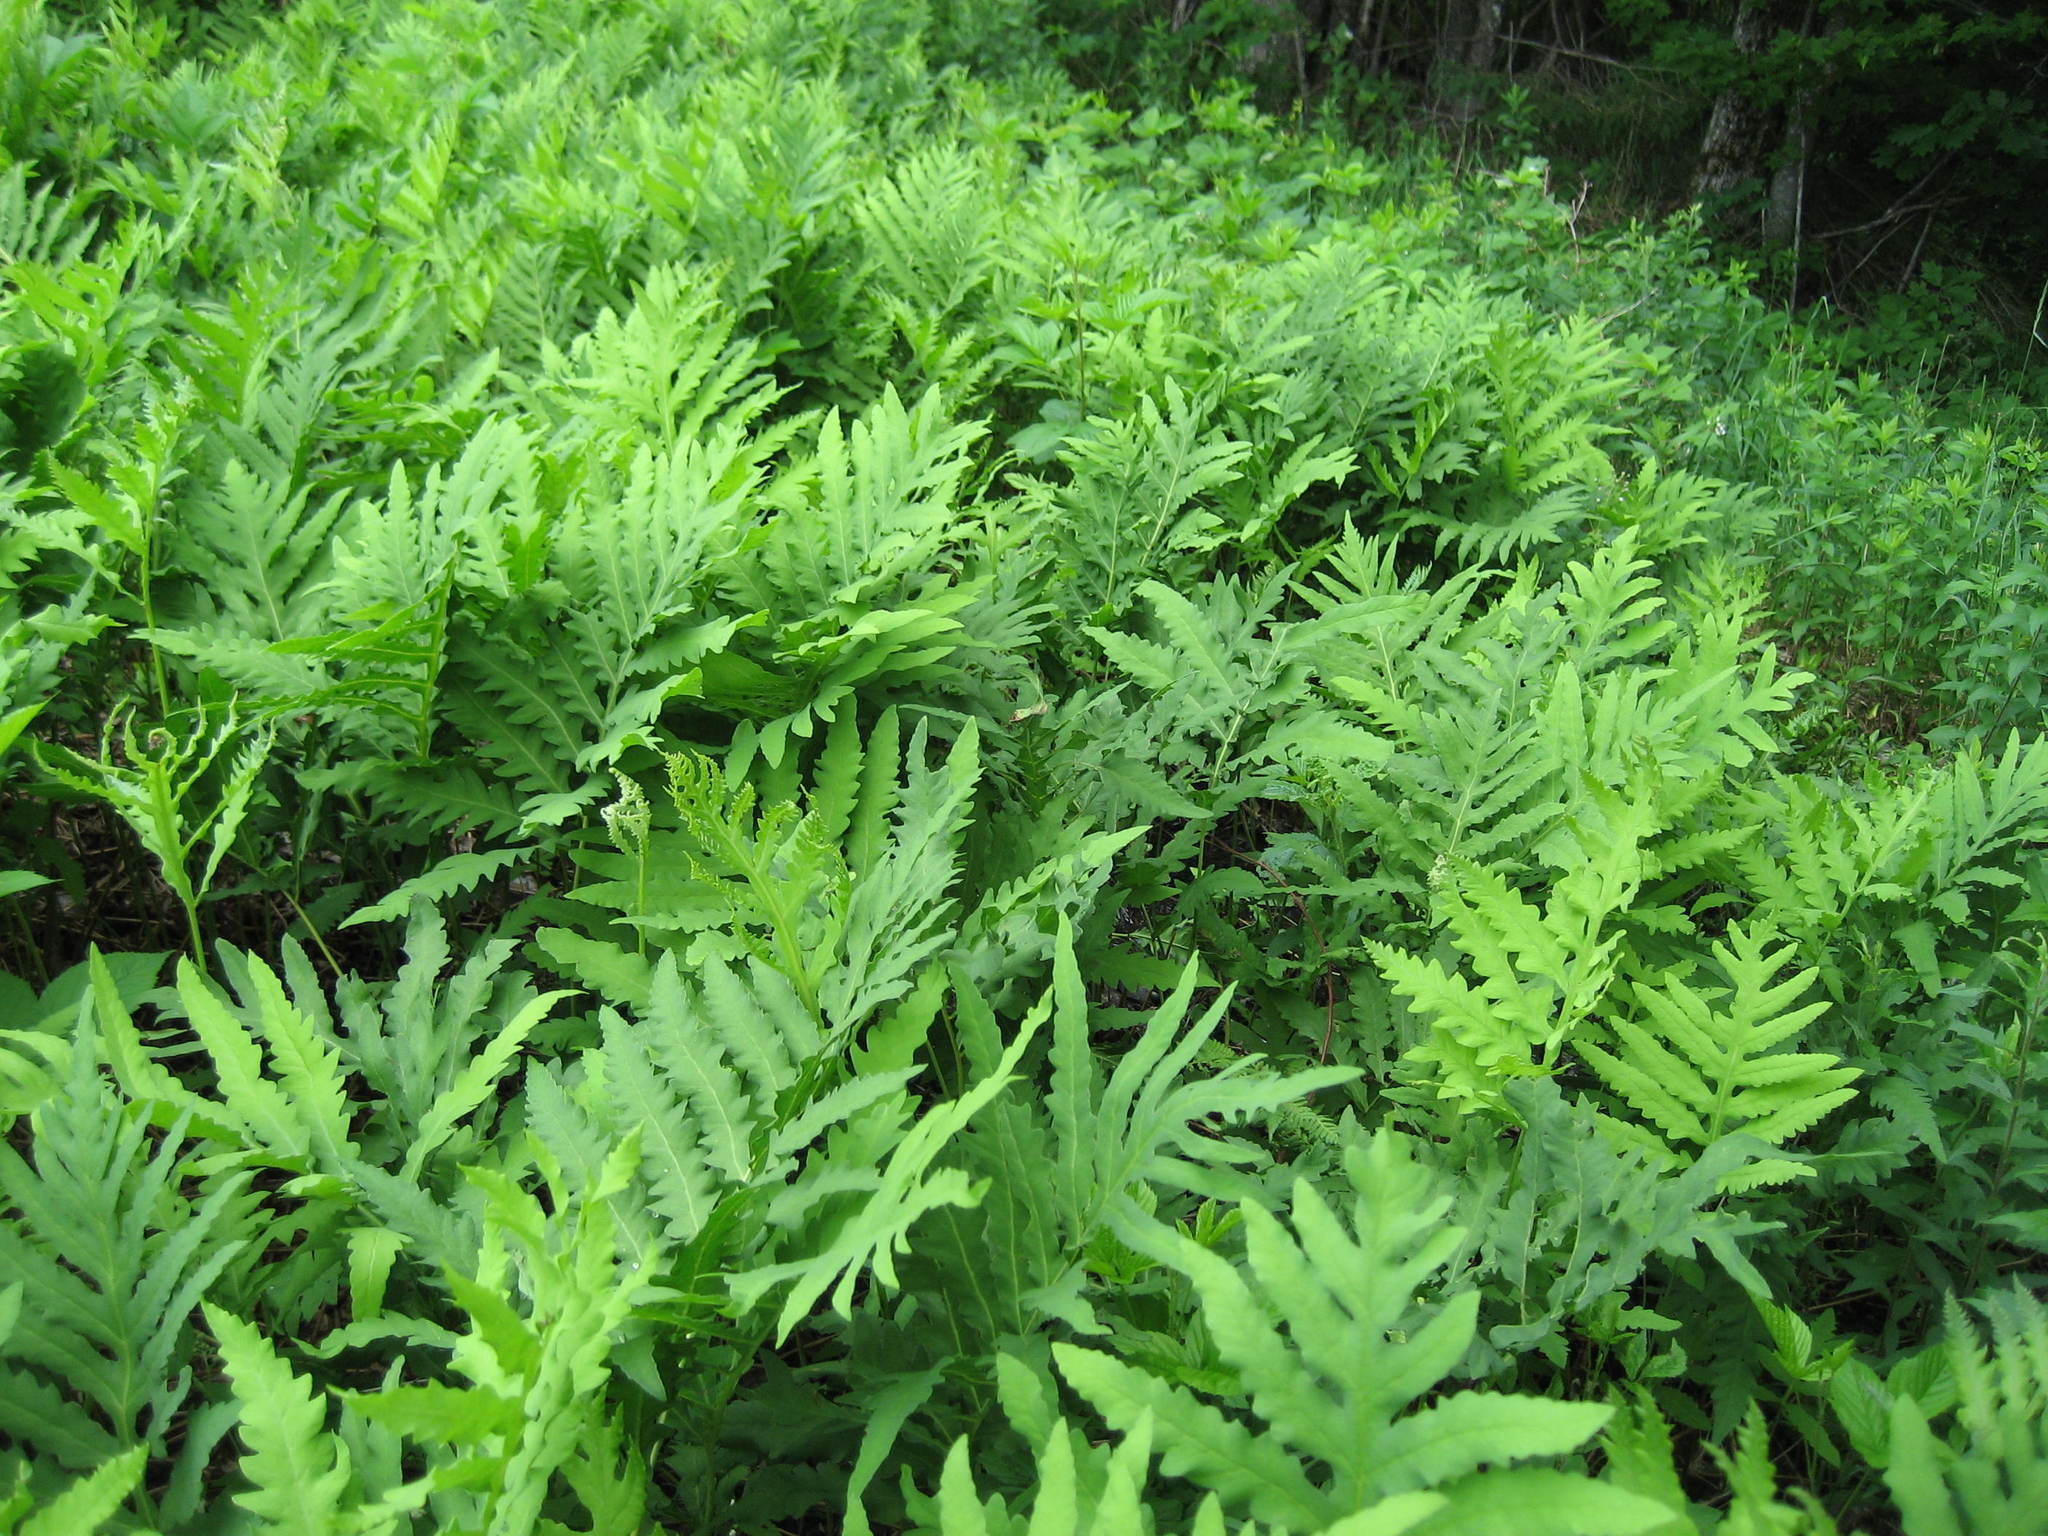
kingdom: Plantae
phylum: Tracheophyta
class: Polypodiopsida
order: Polypodiales
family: Onocleaceae
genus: Onoclea
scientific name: Onoclea sensibilis
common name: Sensitive fern
